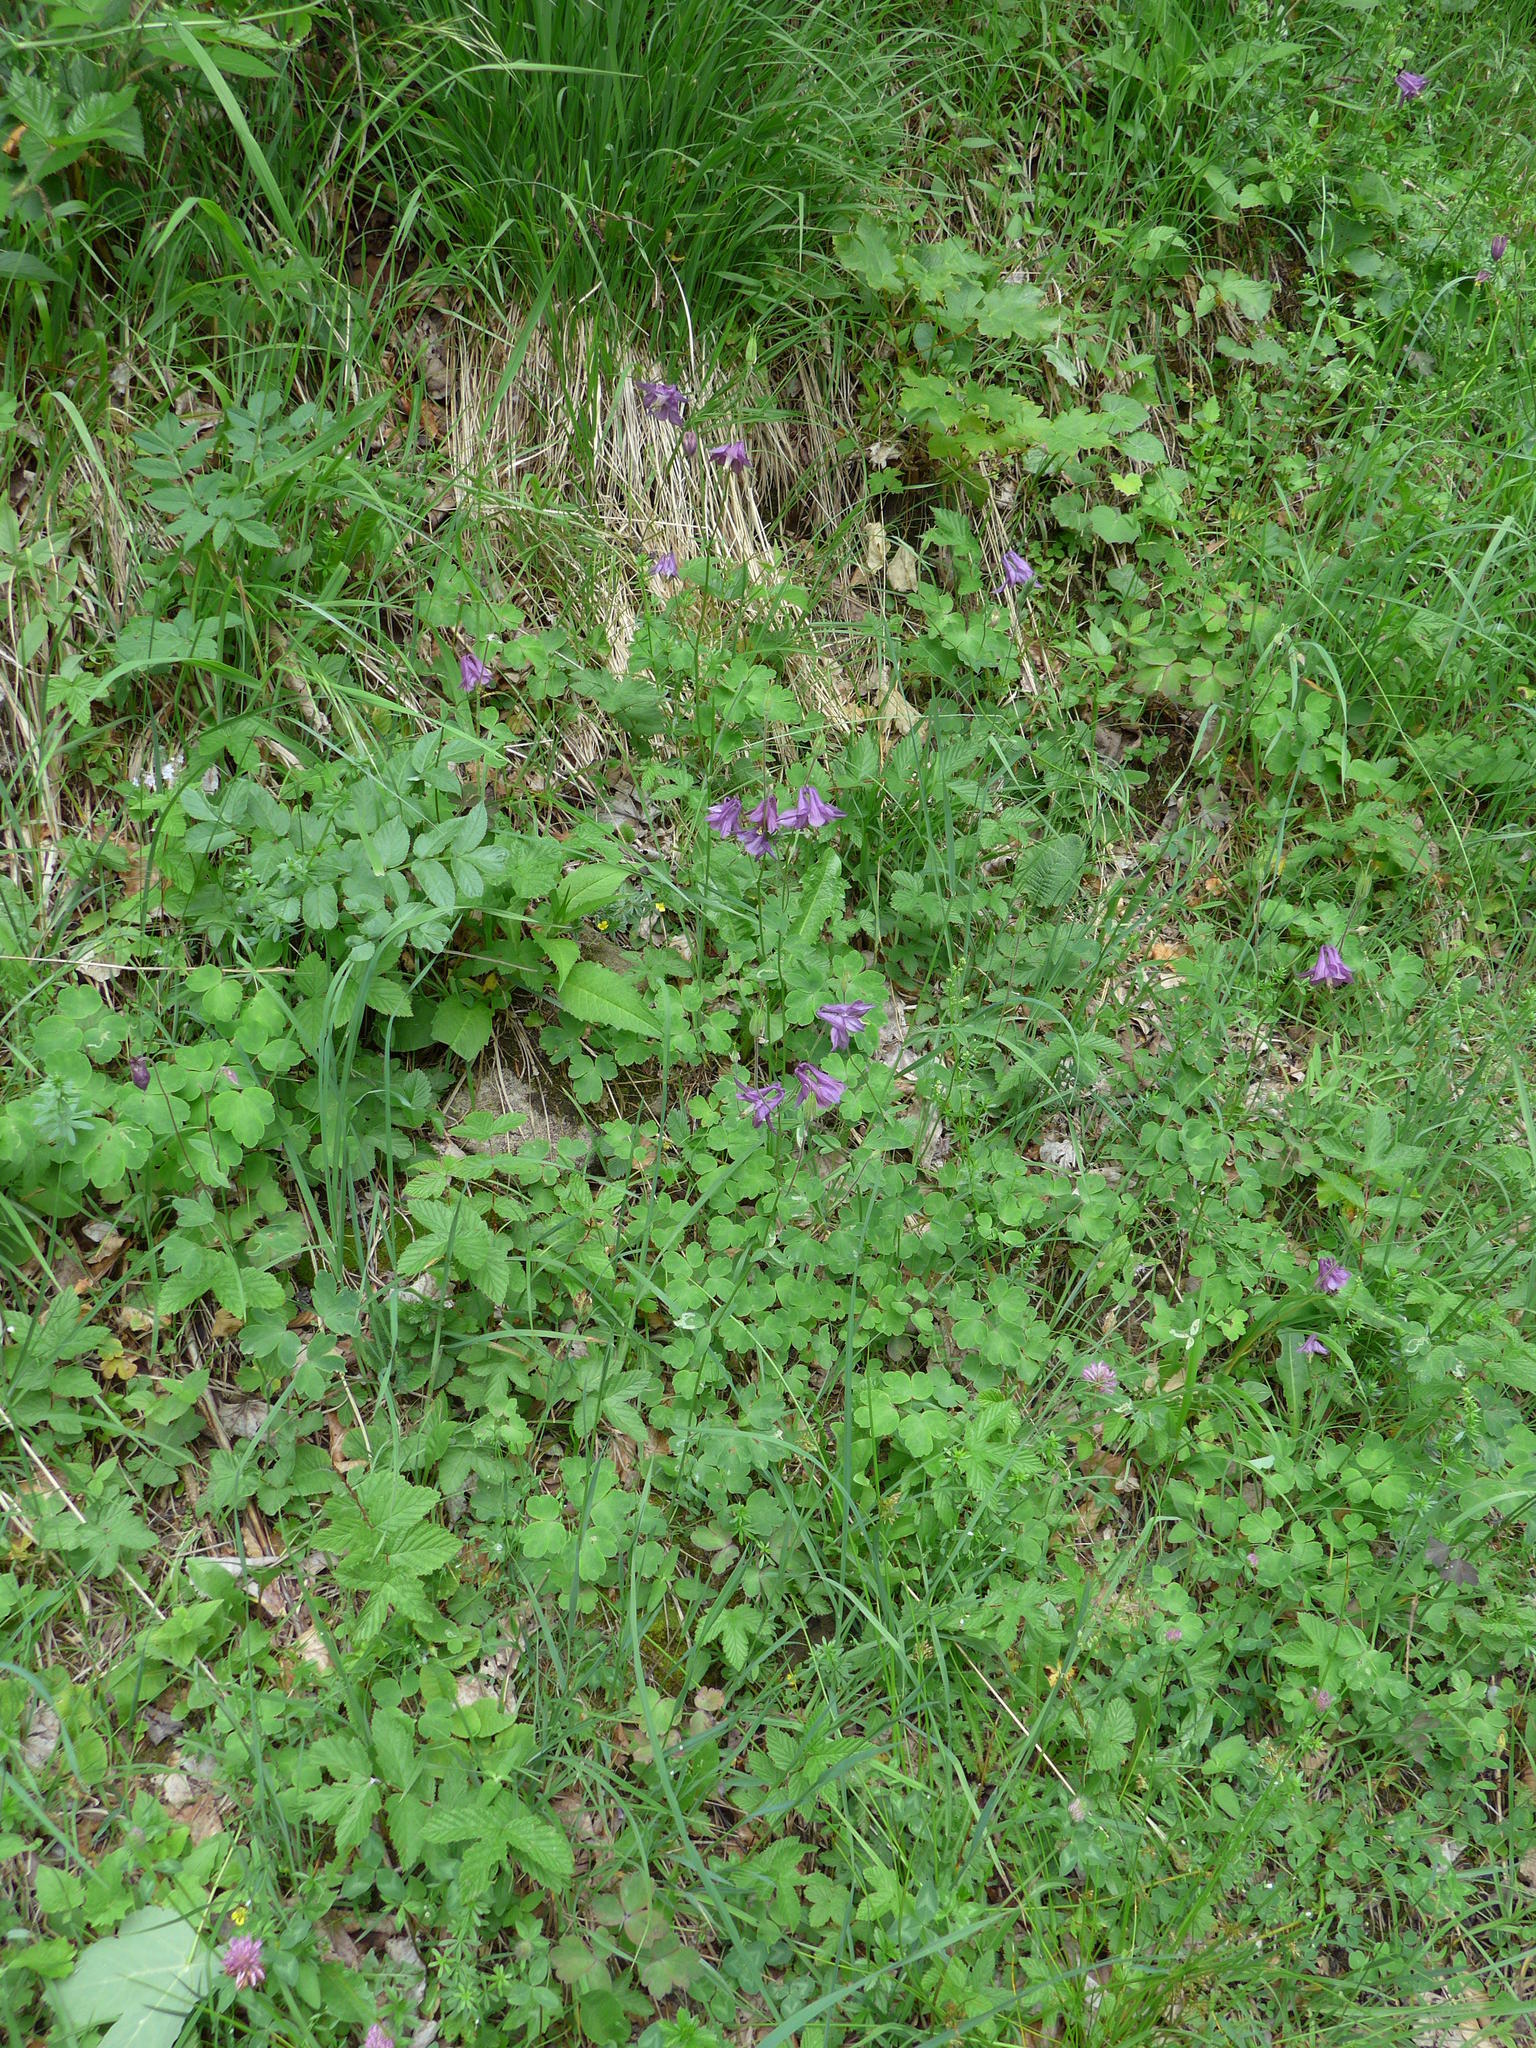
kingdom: Plantae
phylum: Tracheophyta
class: Magnoliopsida
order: Ranunculales
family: Ranunculaceae
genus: Aquilegia
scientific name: Aquilegia vulgaris
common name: Columbine
